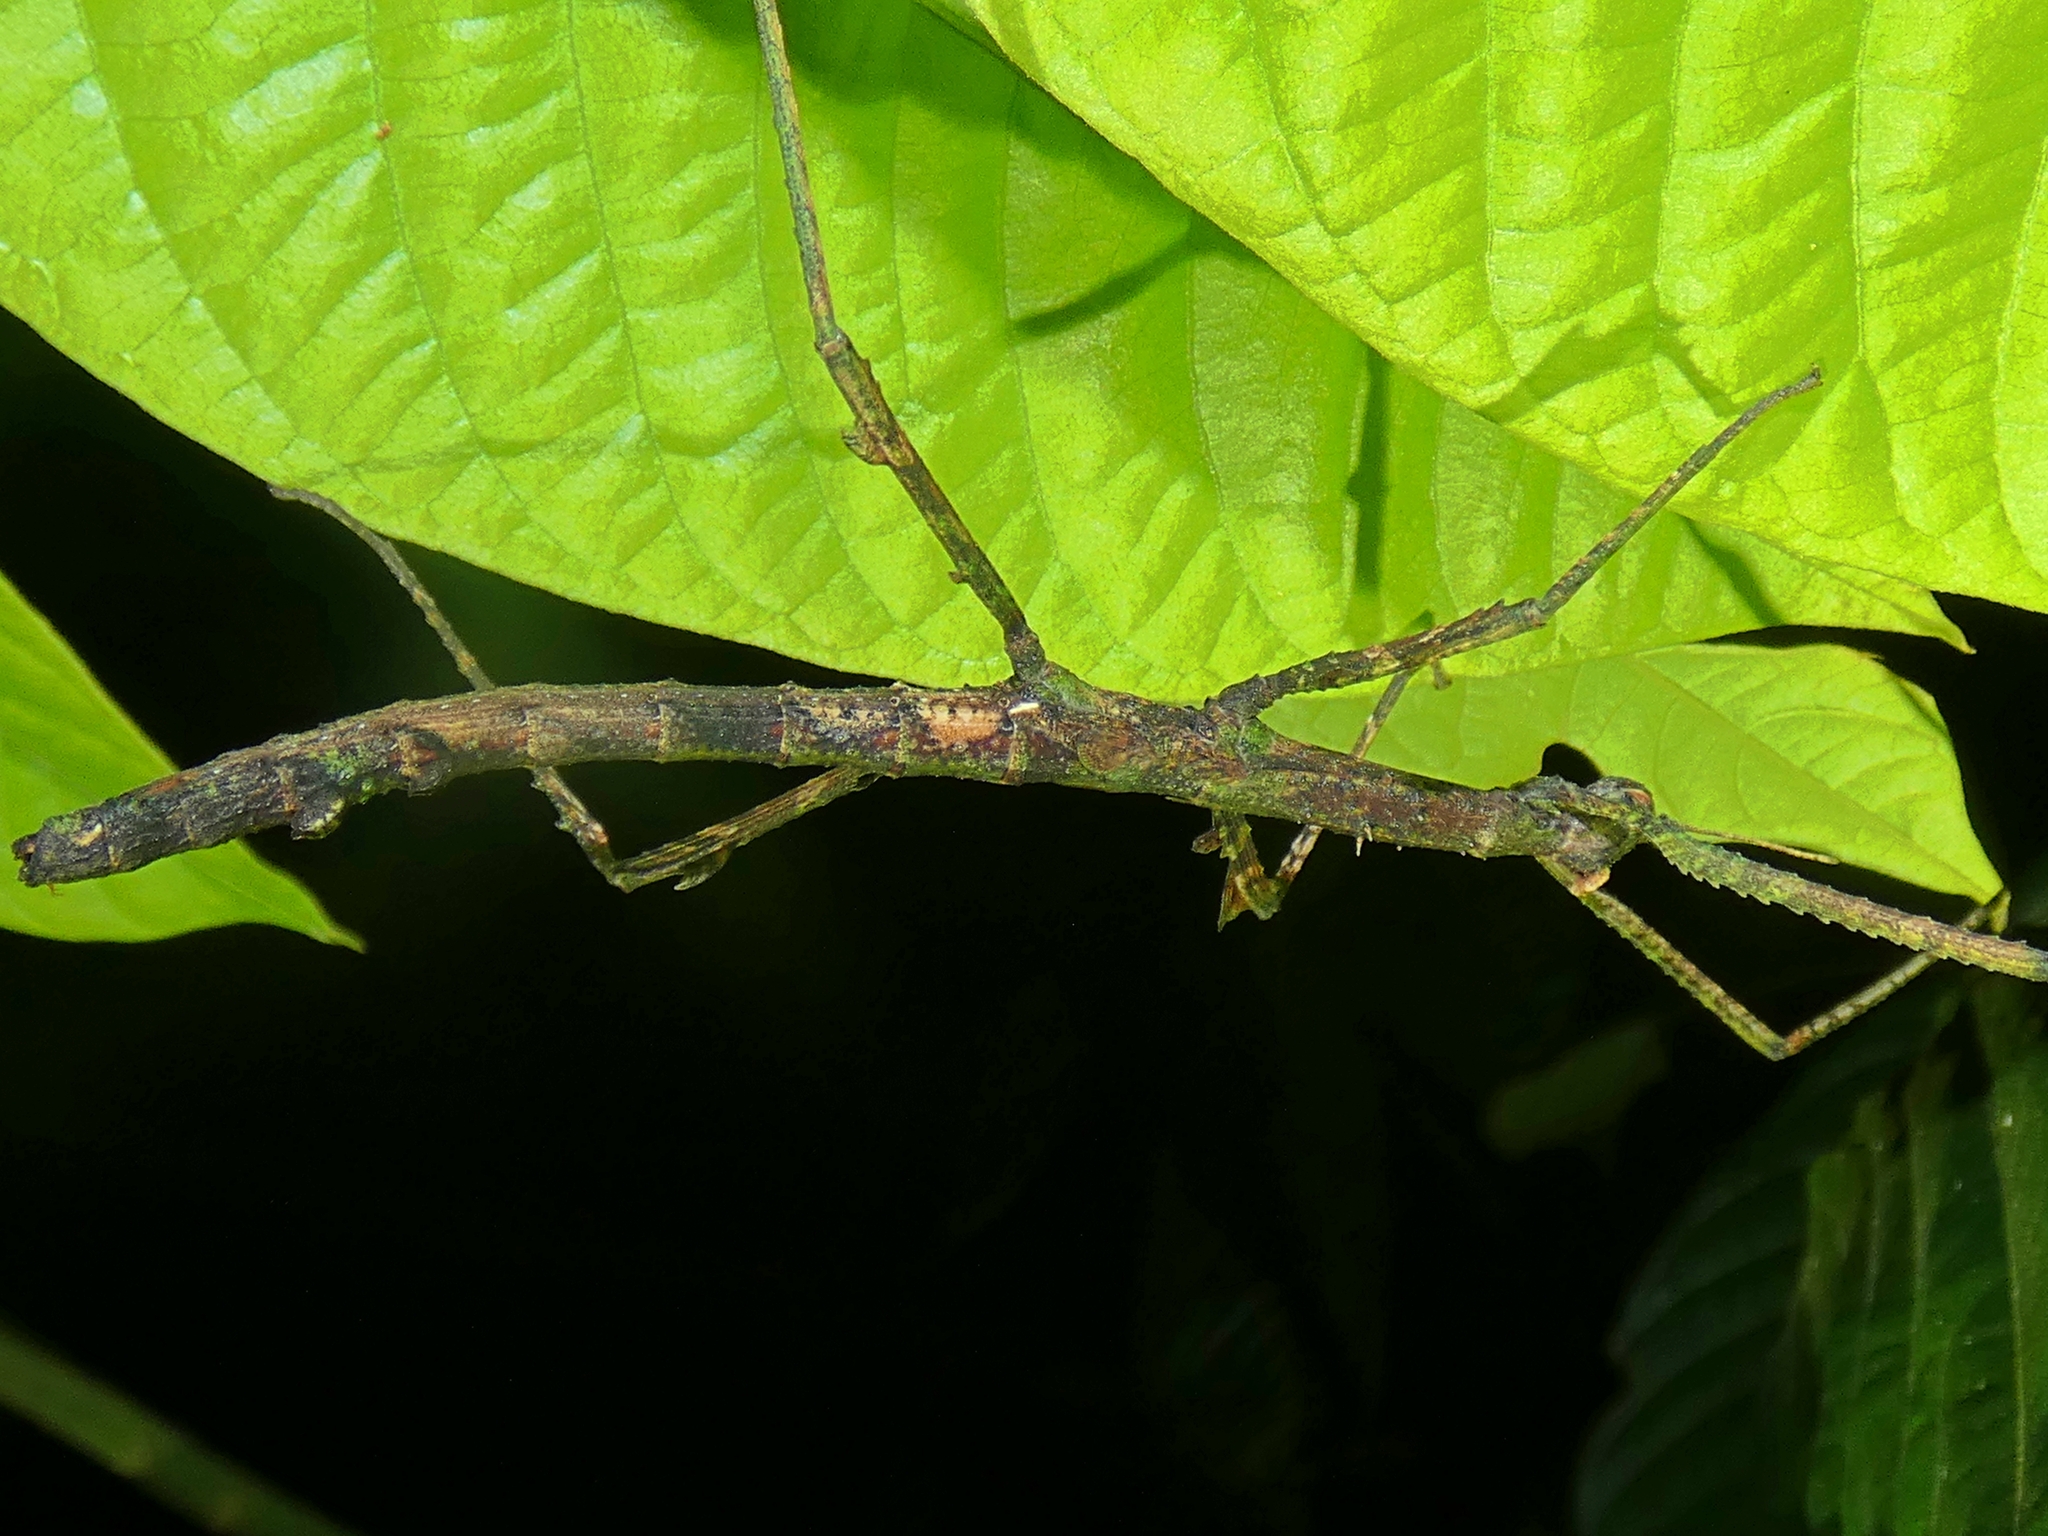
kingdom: Animalia
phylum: Arthropoda
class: Insecta
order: Phasmida
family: Phasmatidae
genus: Onchestus
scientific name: Onchestus rentzi
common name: Rentz's stick-insect
